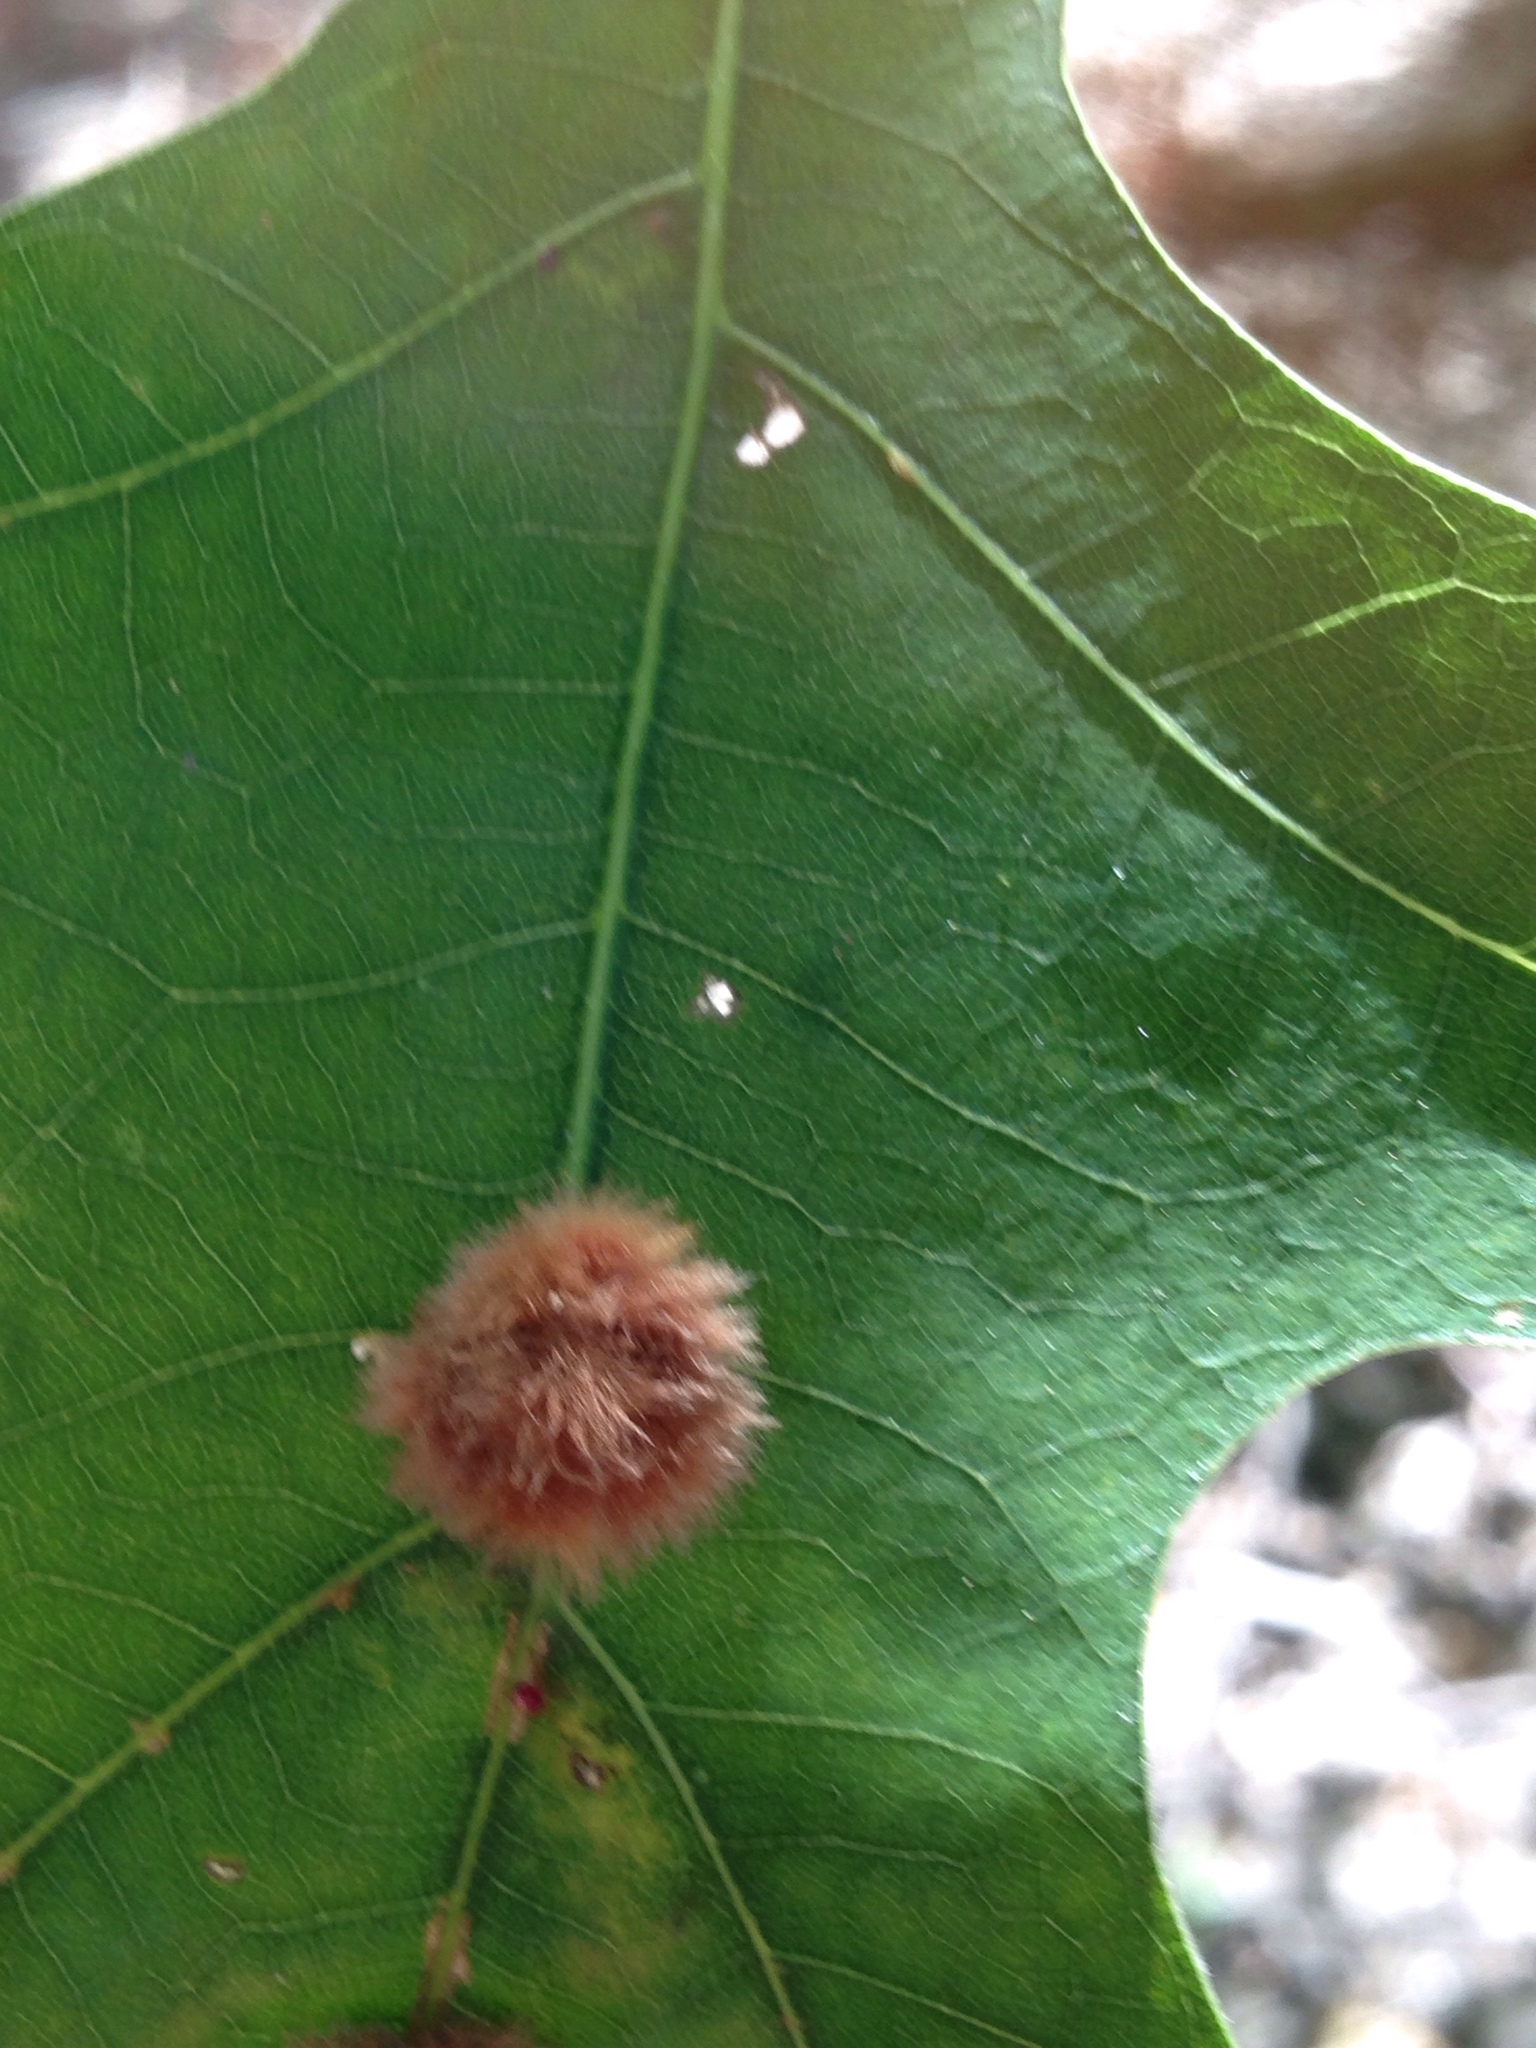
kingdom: Animalia
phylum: Arthropoda
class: Insecta
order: Hymenoptera
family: Cynipidae
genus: Callirhytis
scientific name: Callirhytis
